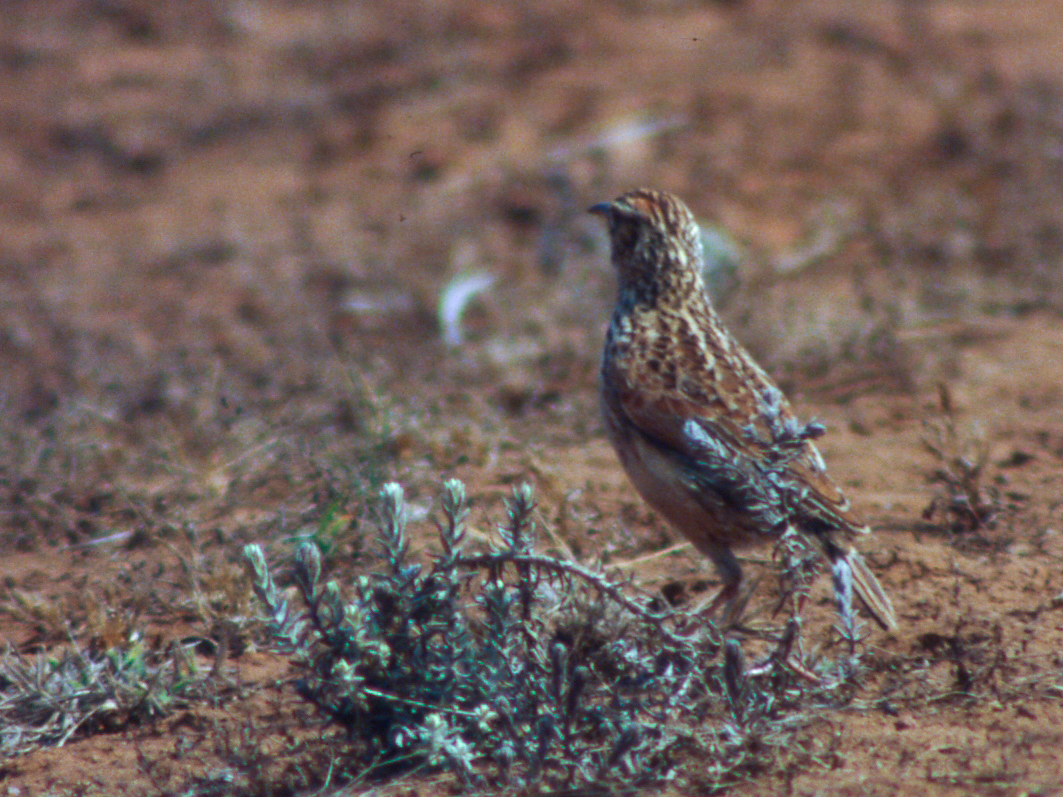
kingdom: Animalia
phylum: Chordata
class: Aves
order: Passeriformes
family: Alaudidae
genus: Mirafra
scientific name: Mirafra africana
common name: Rufous-naped lark
